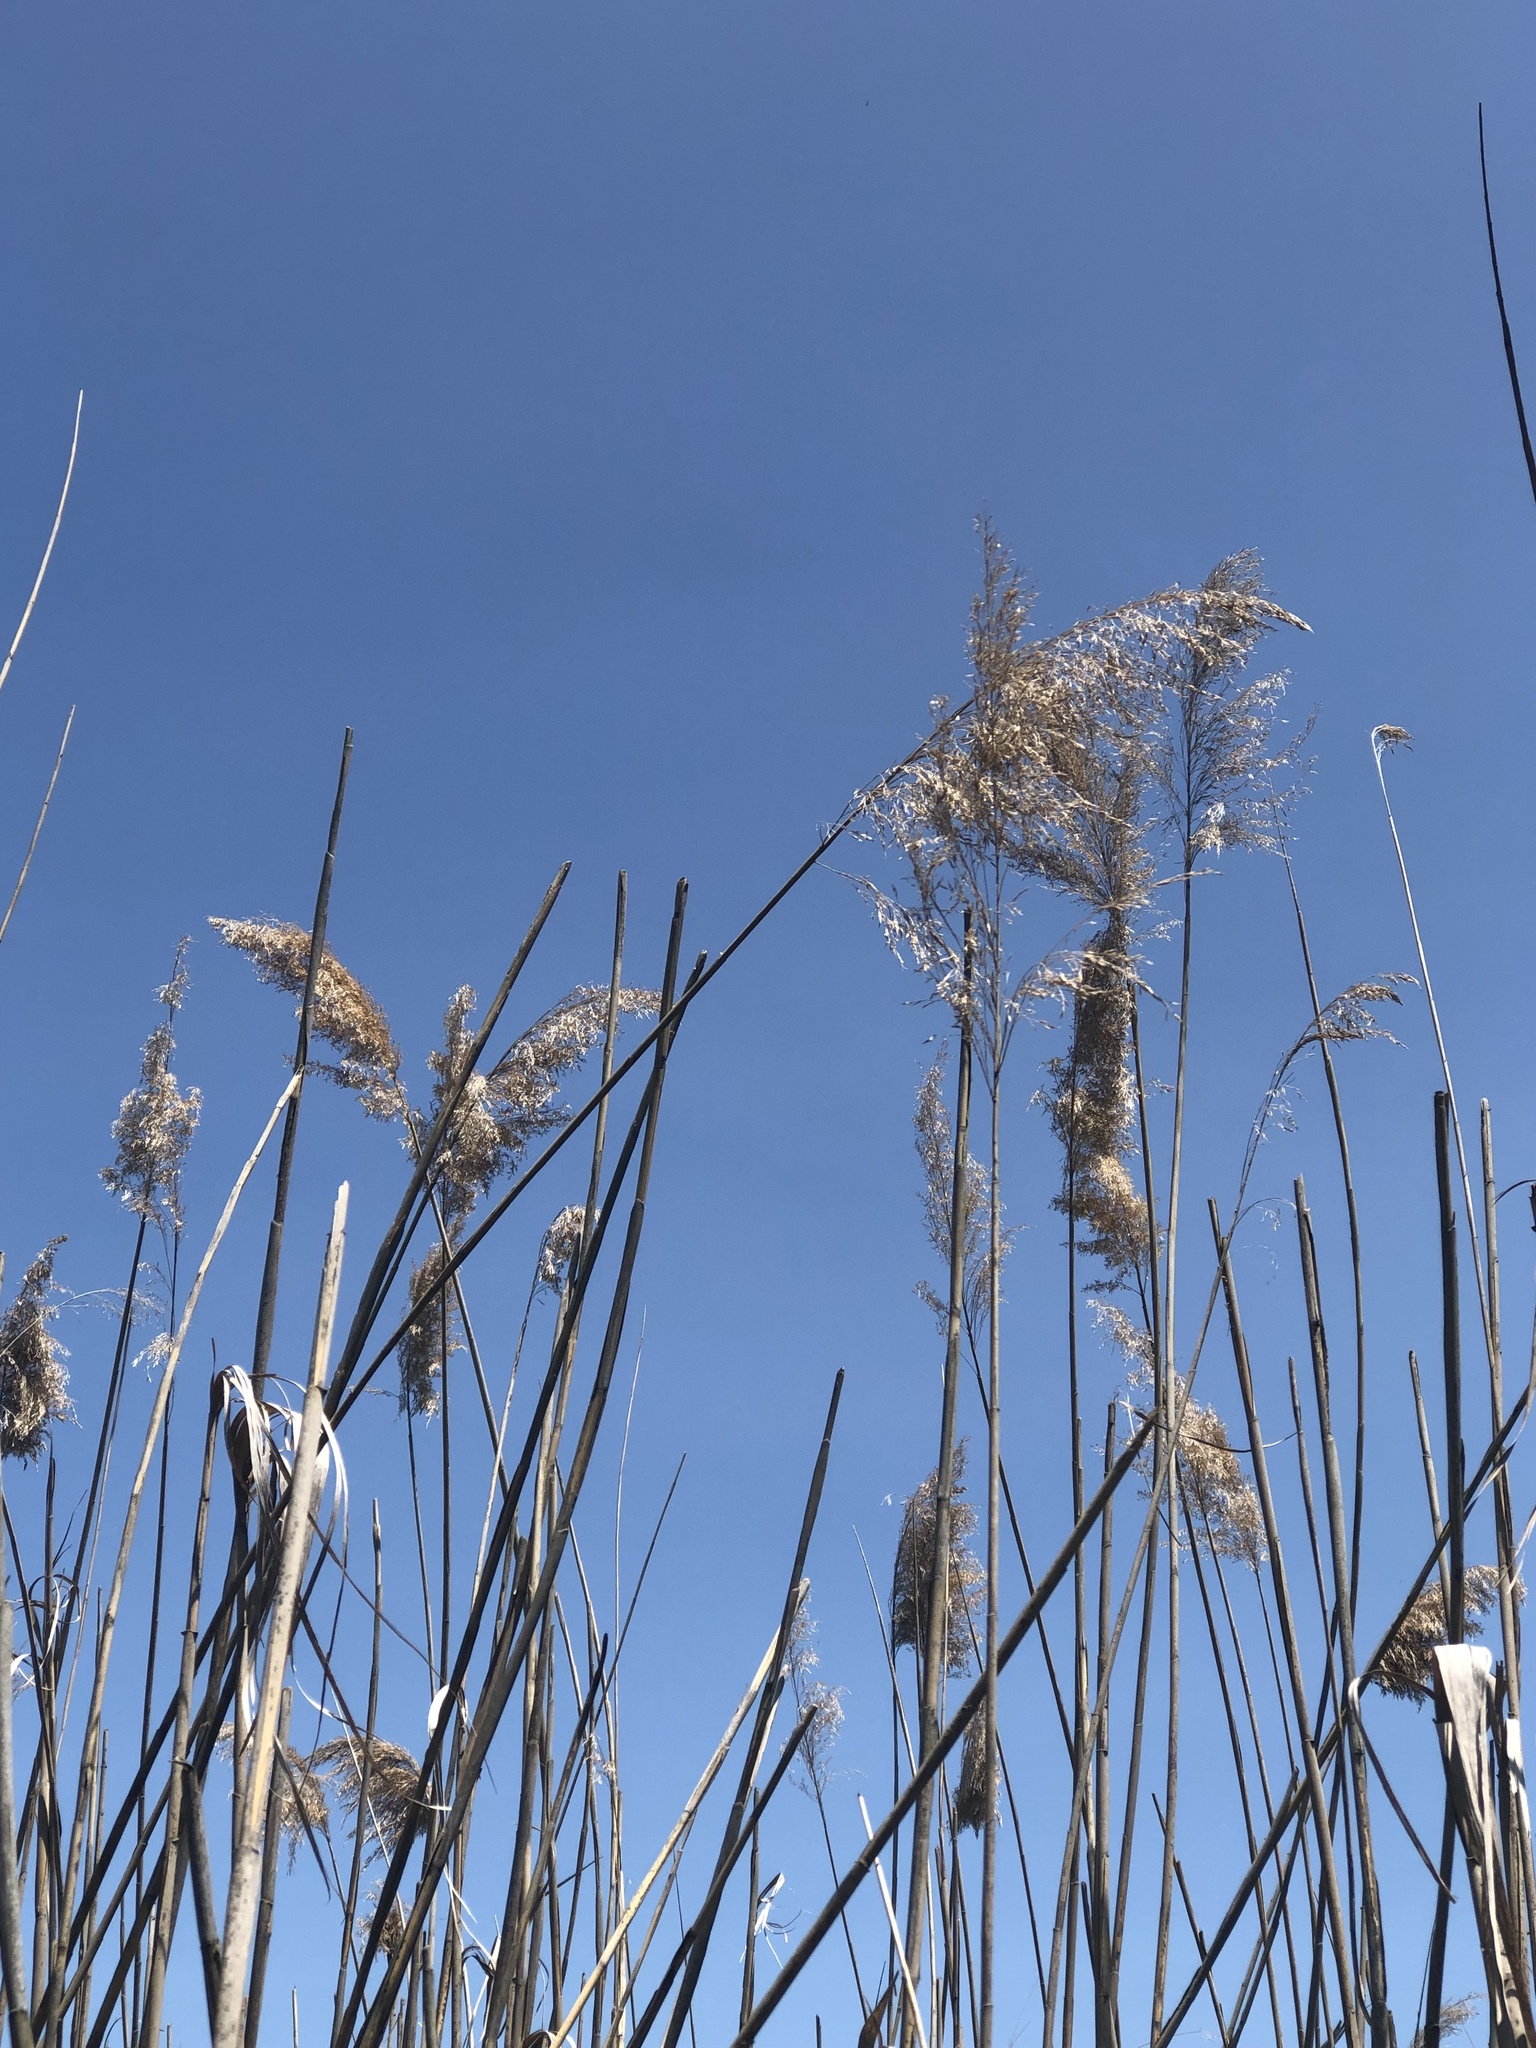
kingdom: Plantae
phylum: Tracheophyta
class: Liliopsida
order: Poales
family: Poaceae
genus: Phragmites
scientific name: Phragmites australis
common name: Common reed
